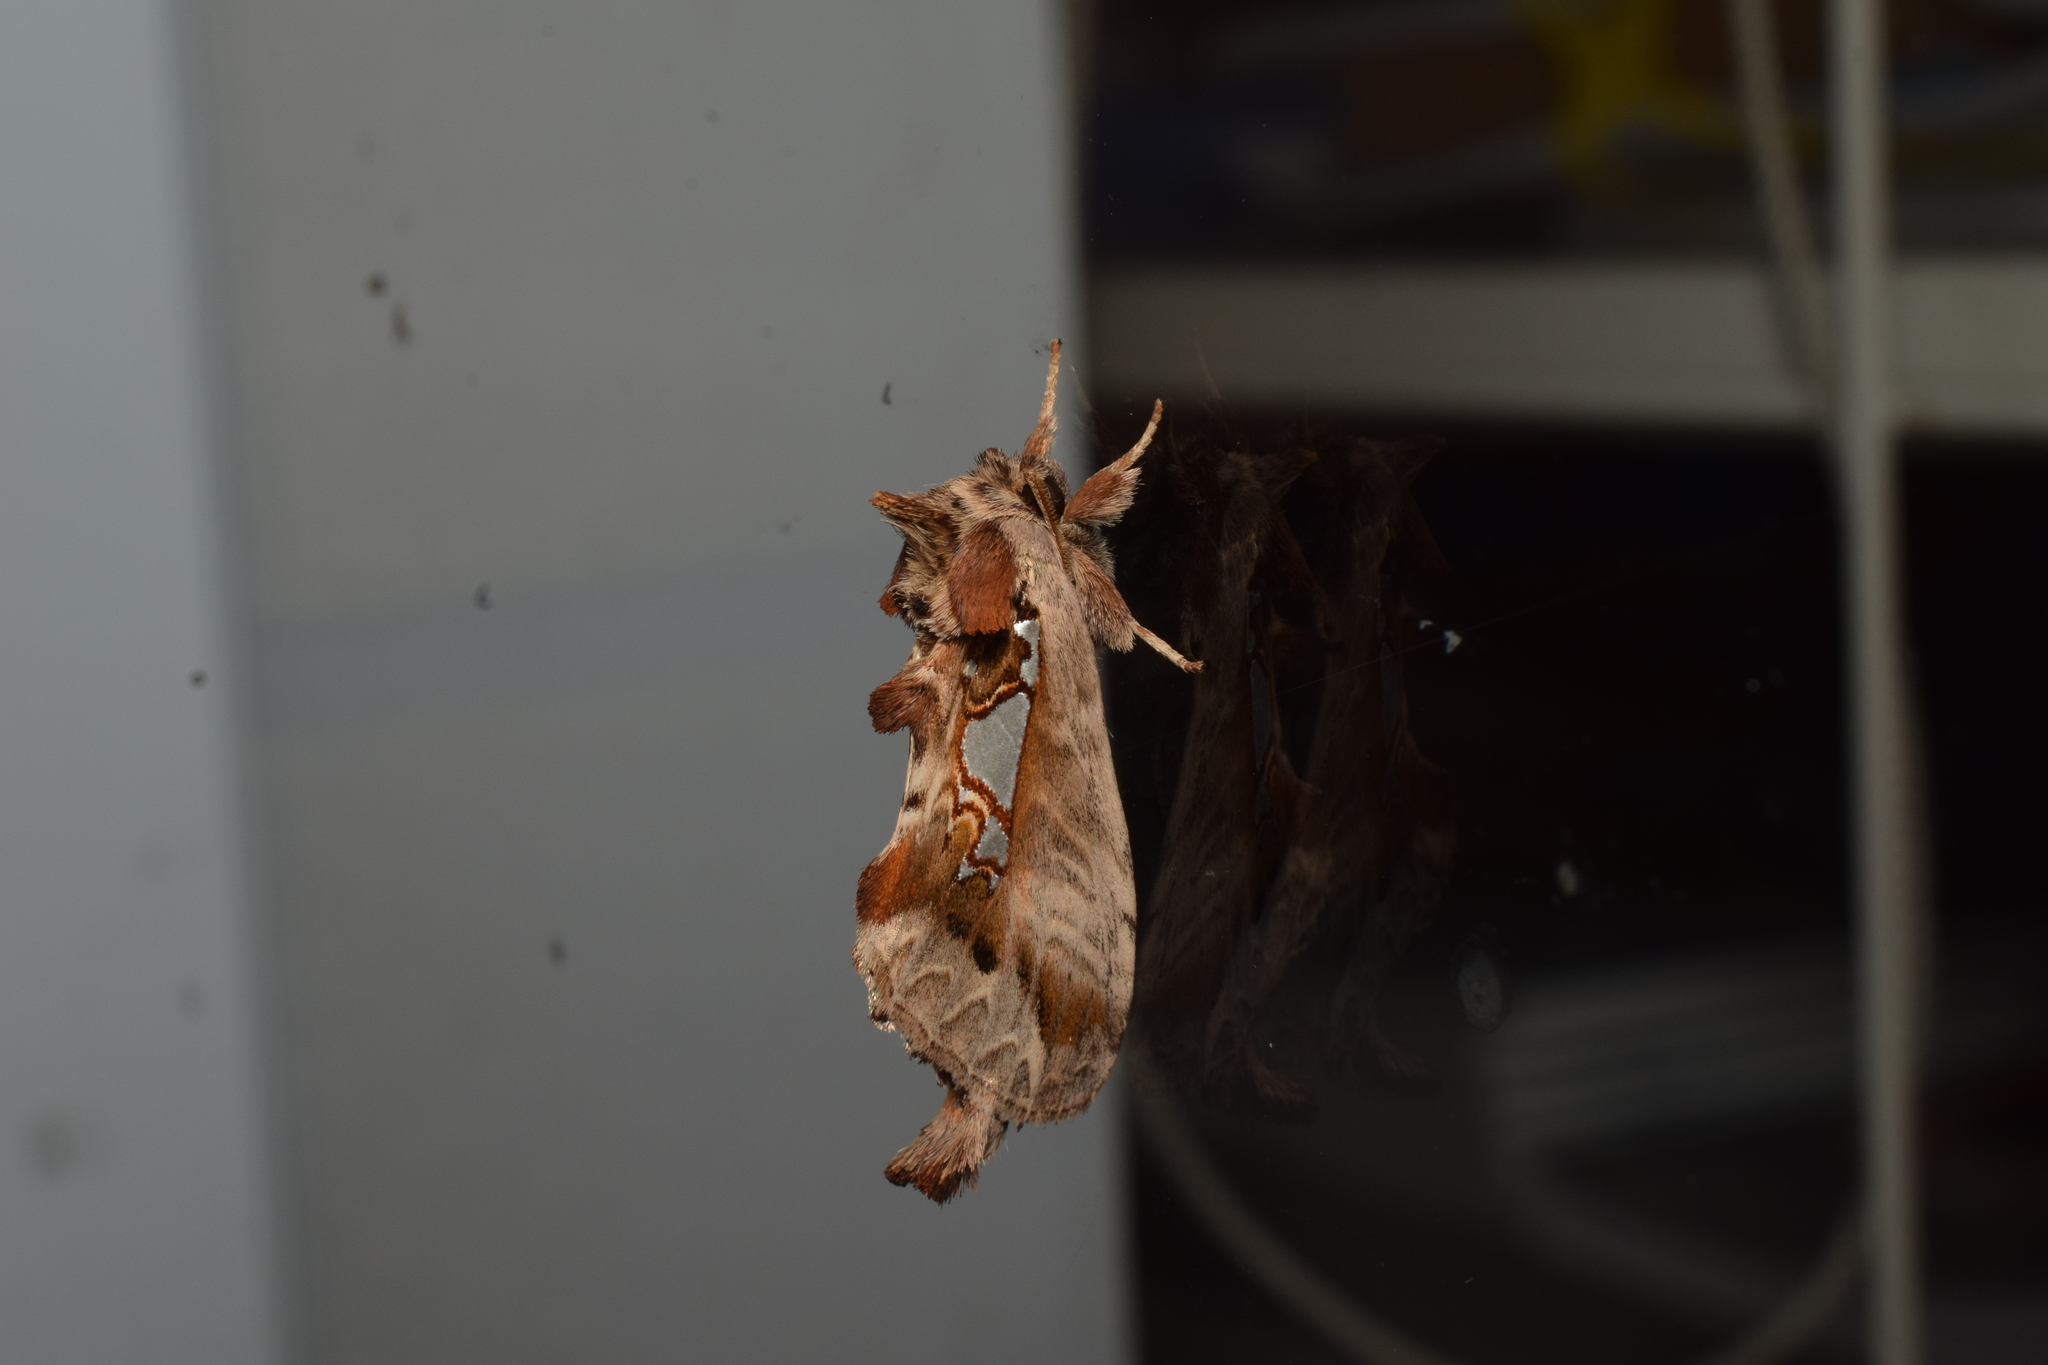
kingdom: Animalia
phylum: Arthropoda
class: Insecta
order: Lepidoptera
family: Notodontidae
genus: Spatalia
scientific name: Spatalia doerriesi
